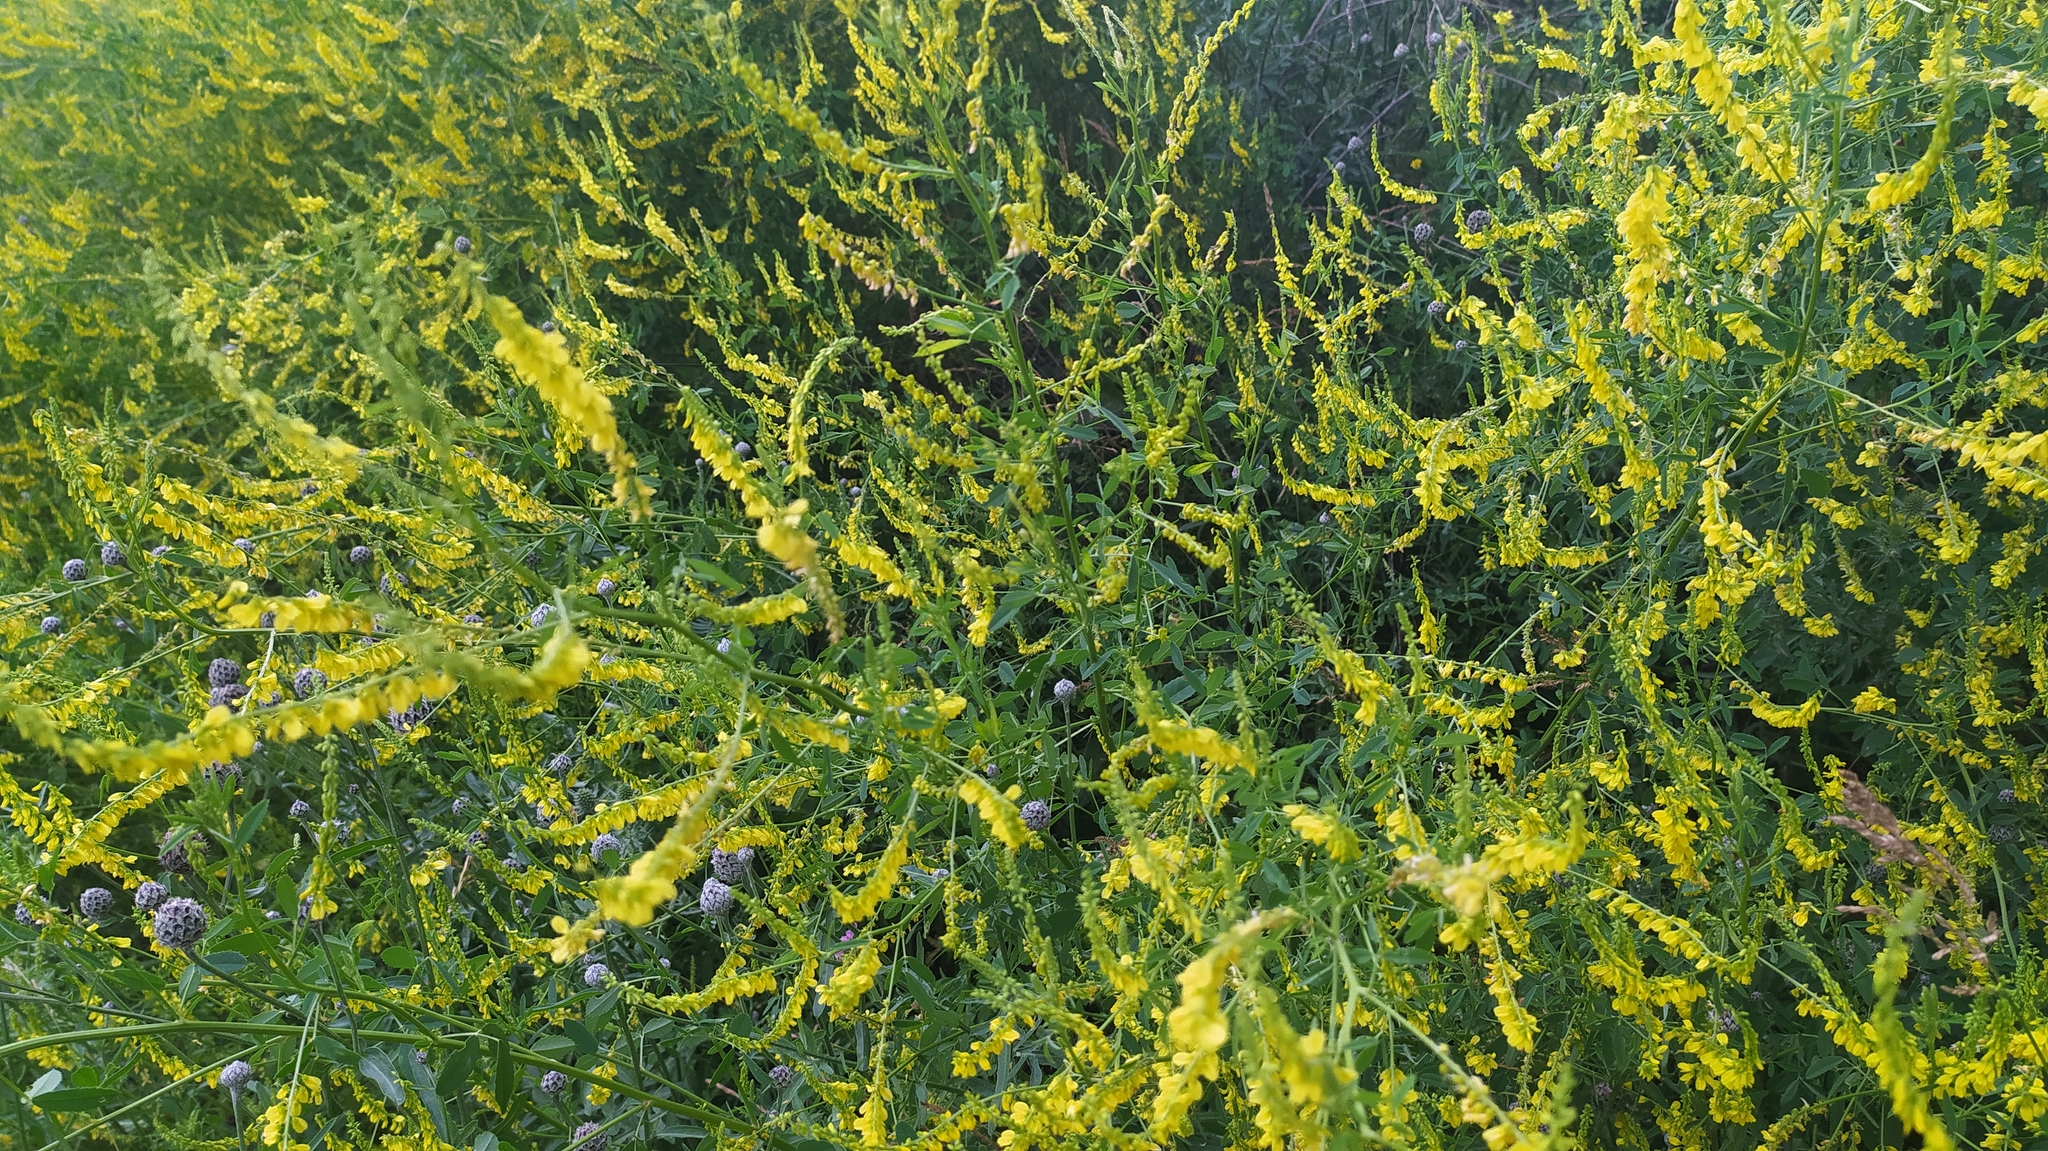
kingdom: Plantae
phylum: Tracheophyta
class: Magnoliopsida
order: Fabales
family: Fabaceae
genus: Melilotus
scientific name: Melilotus officinalis
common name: Sweetclover
